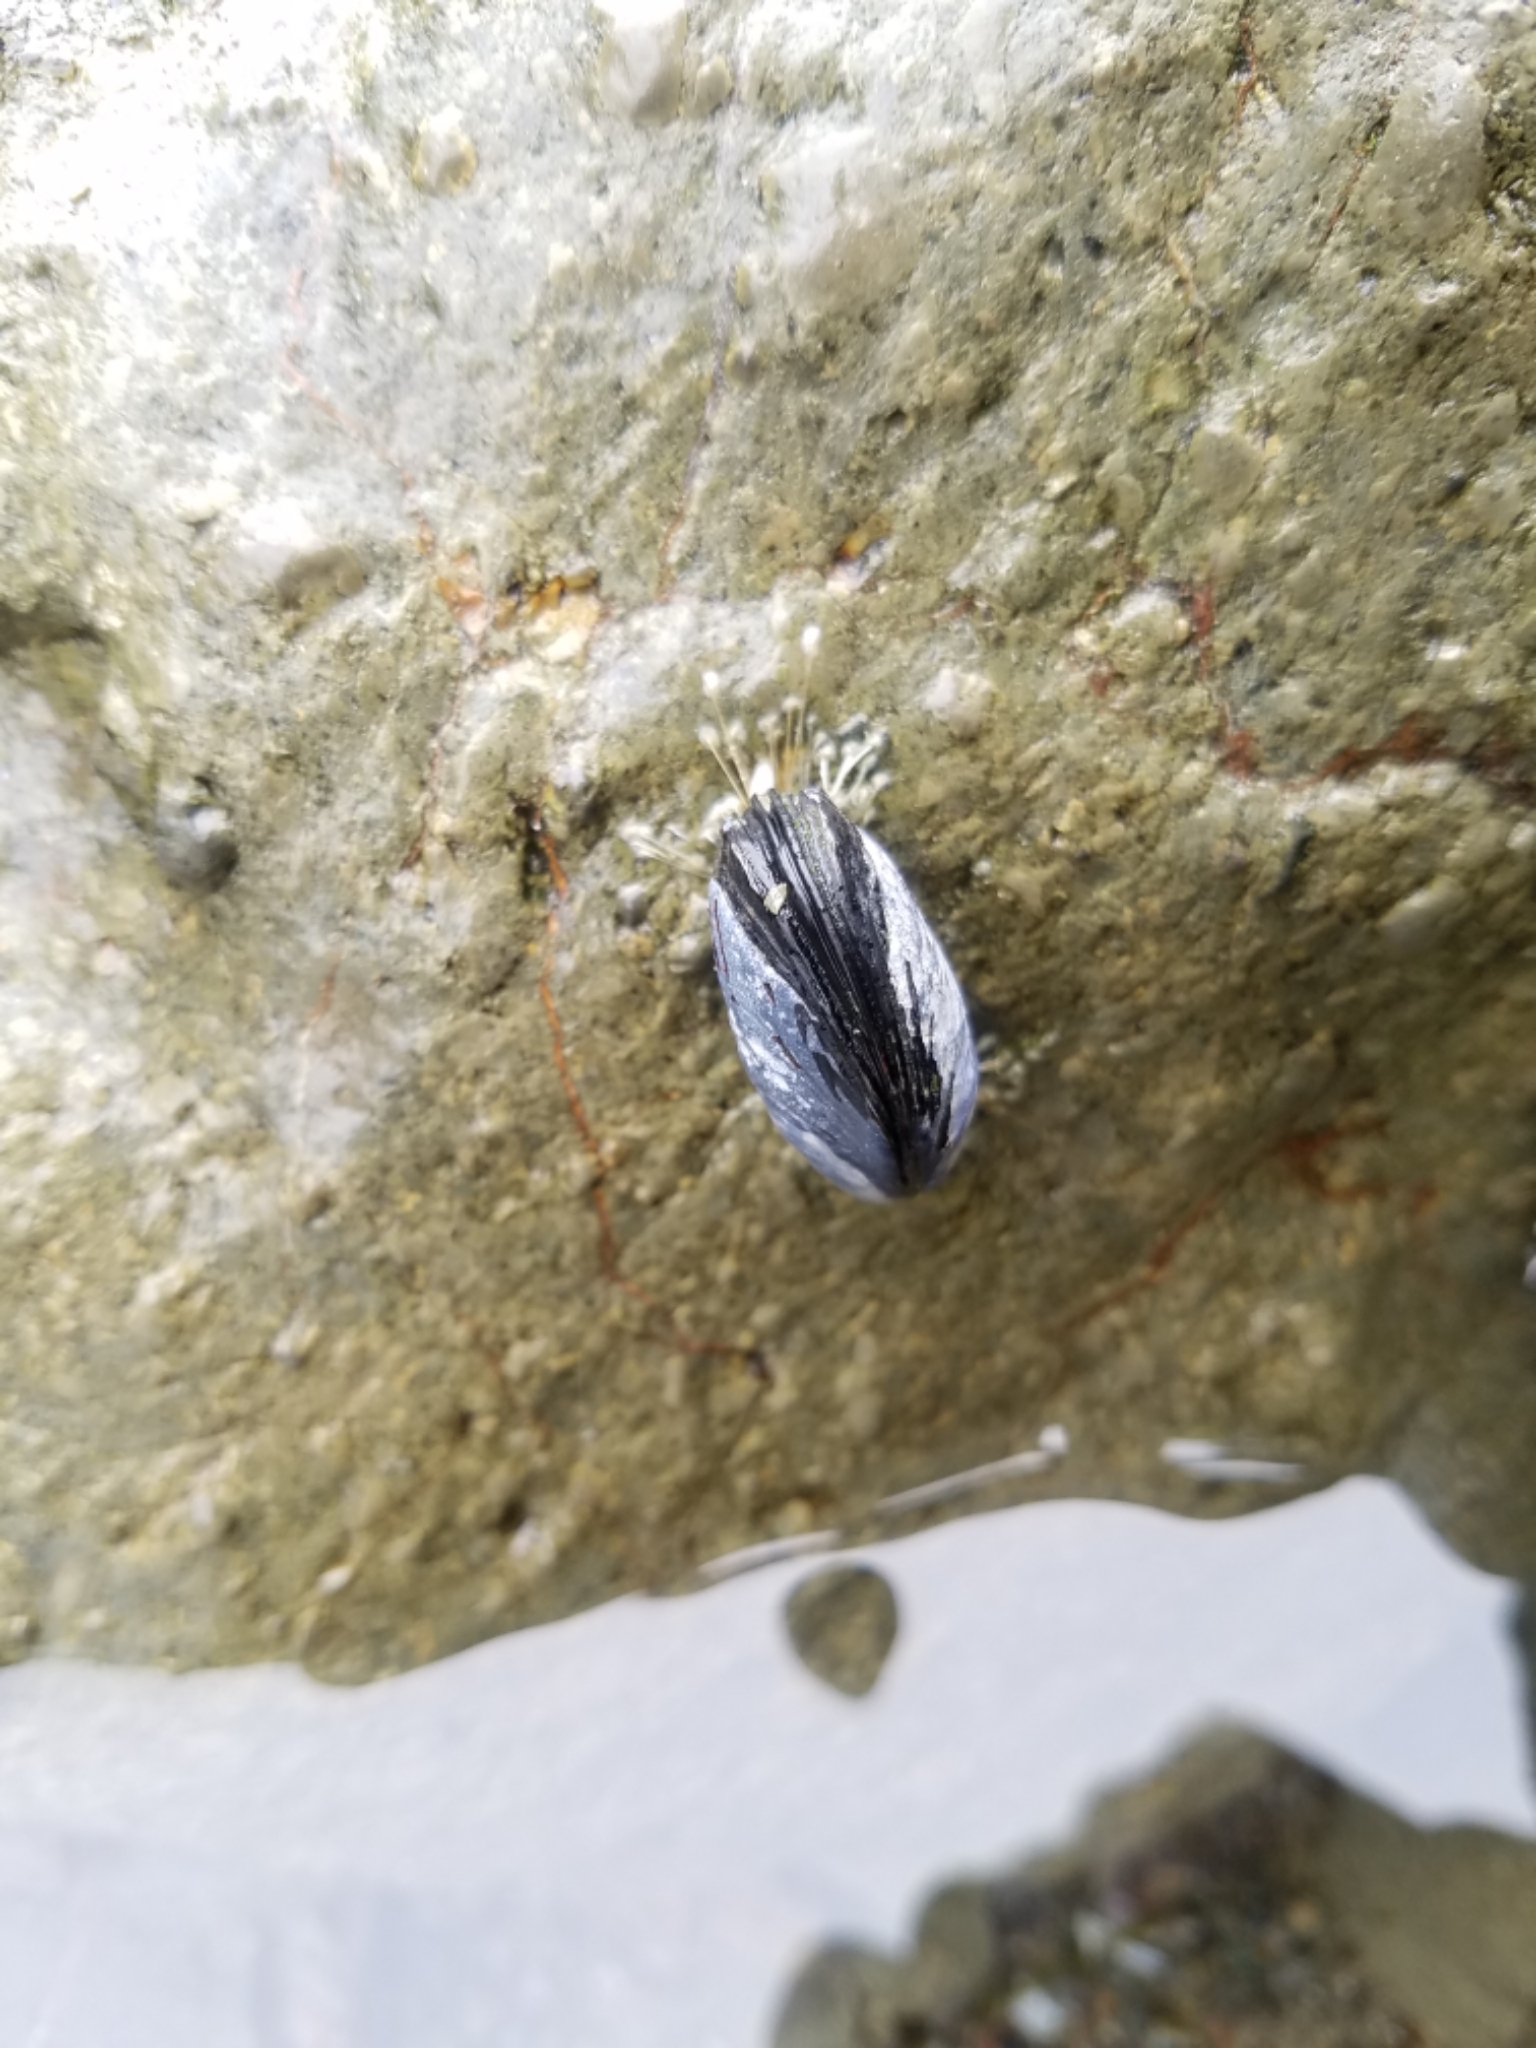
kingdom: Animalia
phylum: Mollusca
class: Bivalvia
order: Mytilida
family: Mytilidae
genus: Mytilus
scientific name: Mytilus californianus
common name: California mussel
